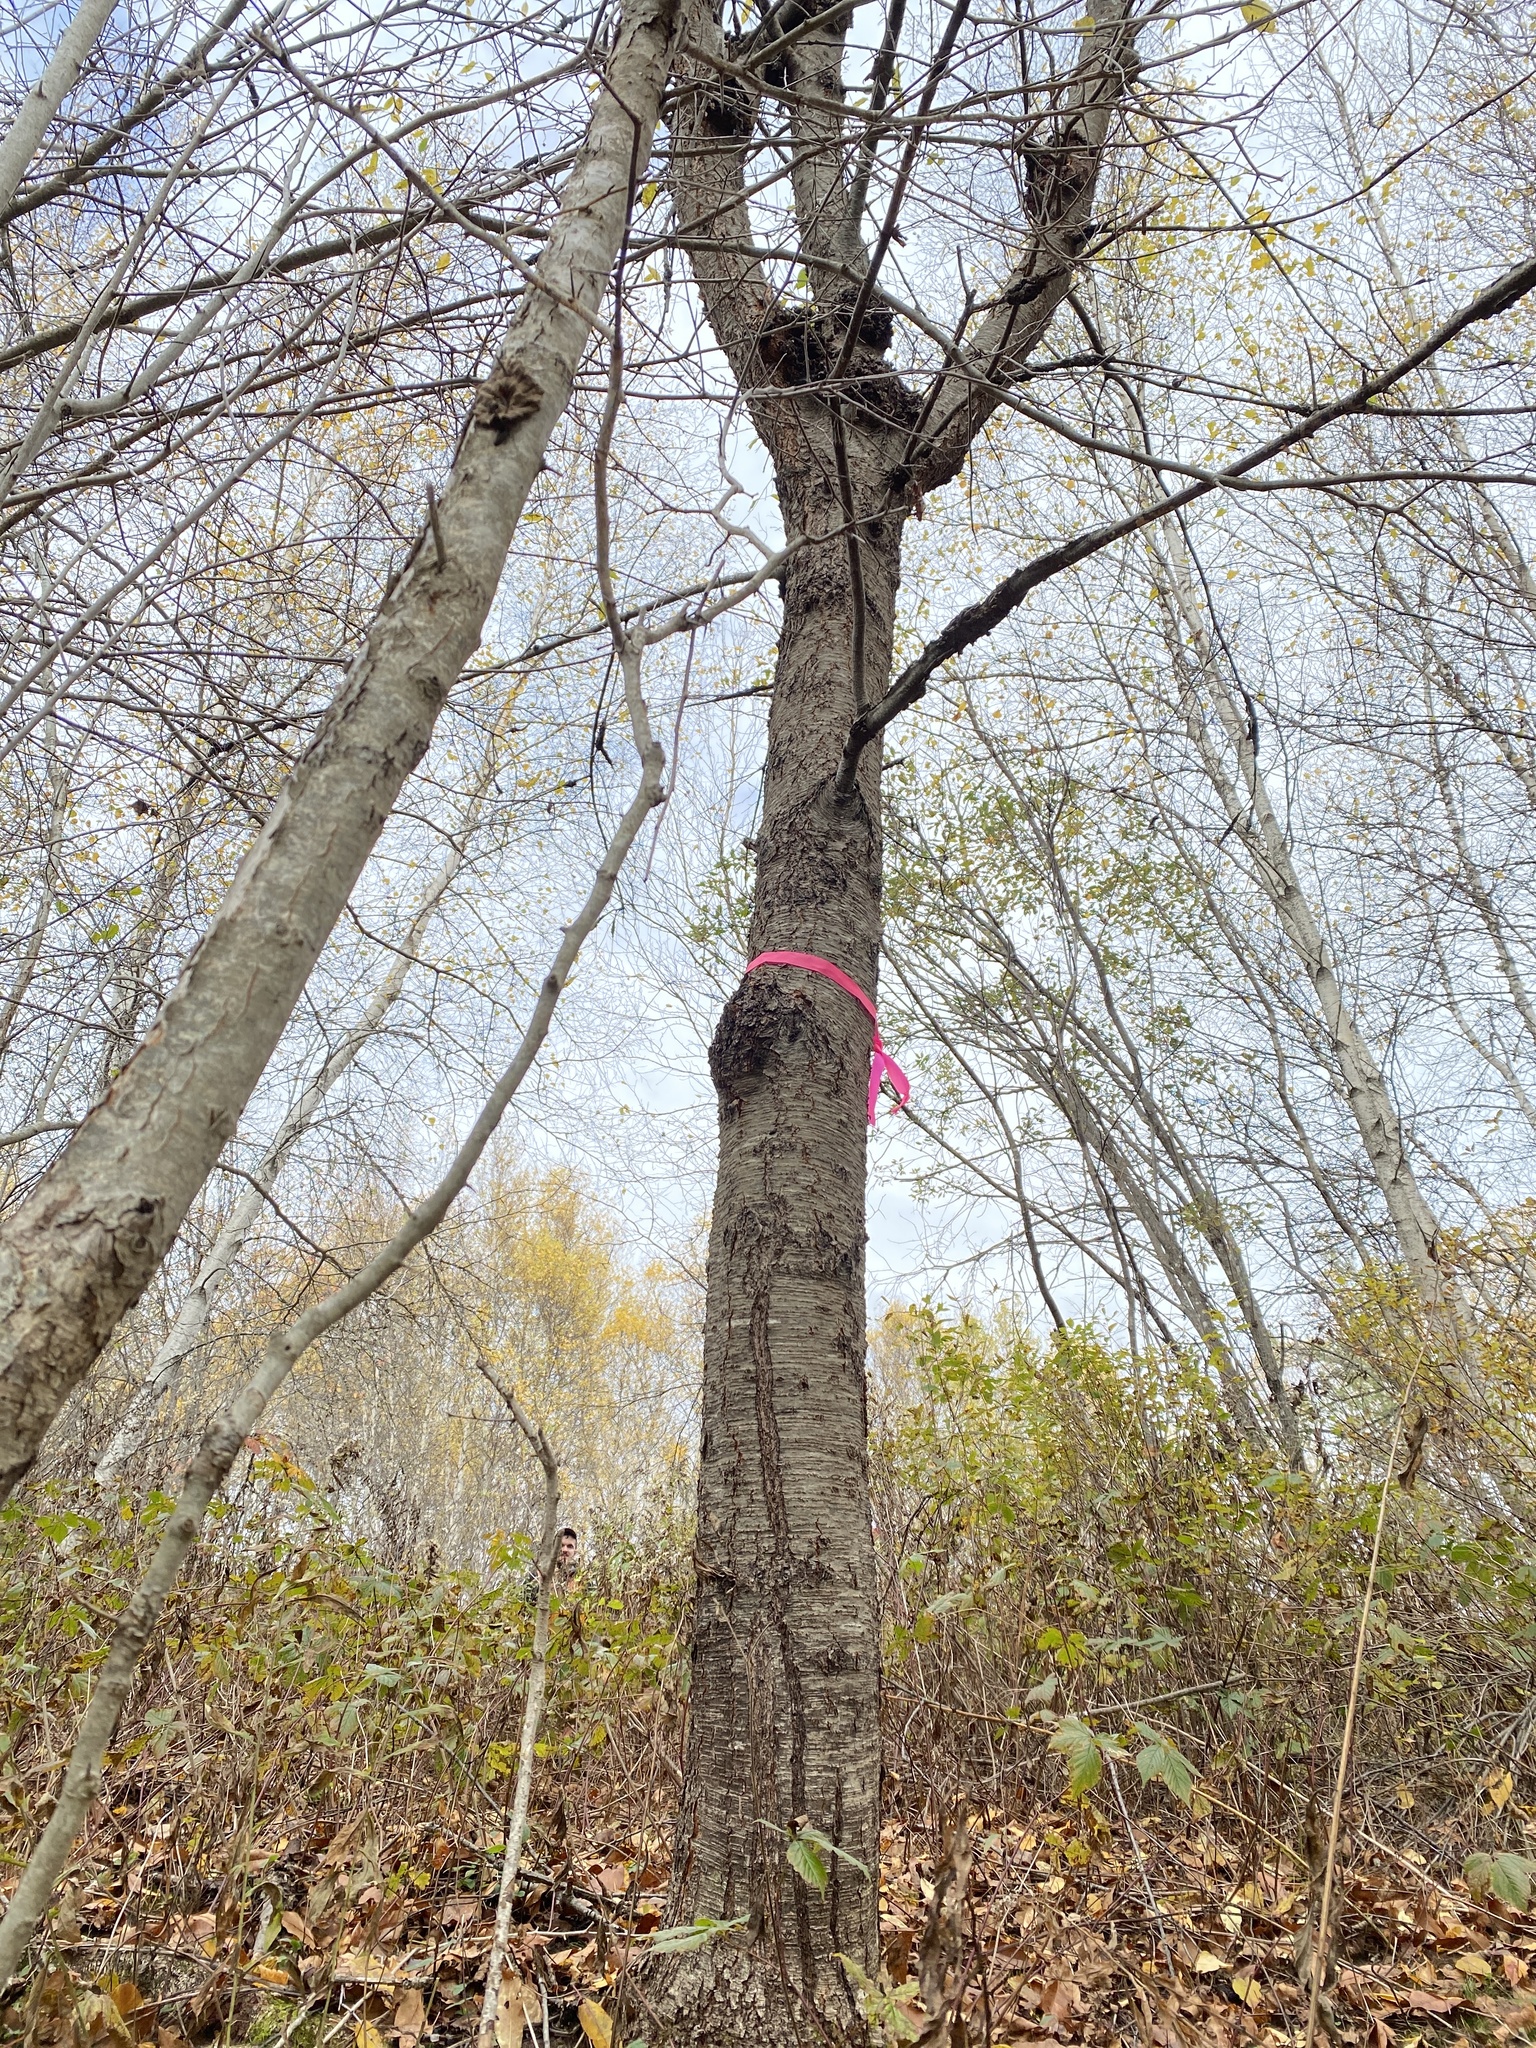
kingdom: Plantae
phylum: Tracheophyta
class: Magnoliopsida
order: Rosales
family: Rosaceae
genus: Prunus
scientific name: Prunus pensylvanica
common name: Pin cherry
